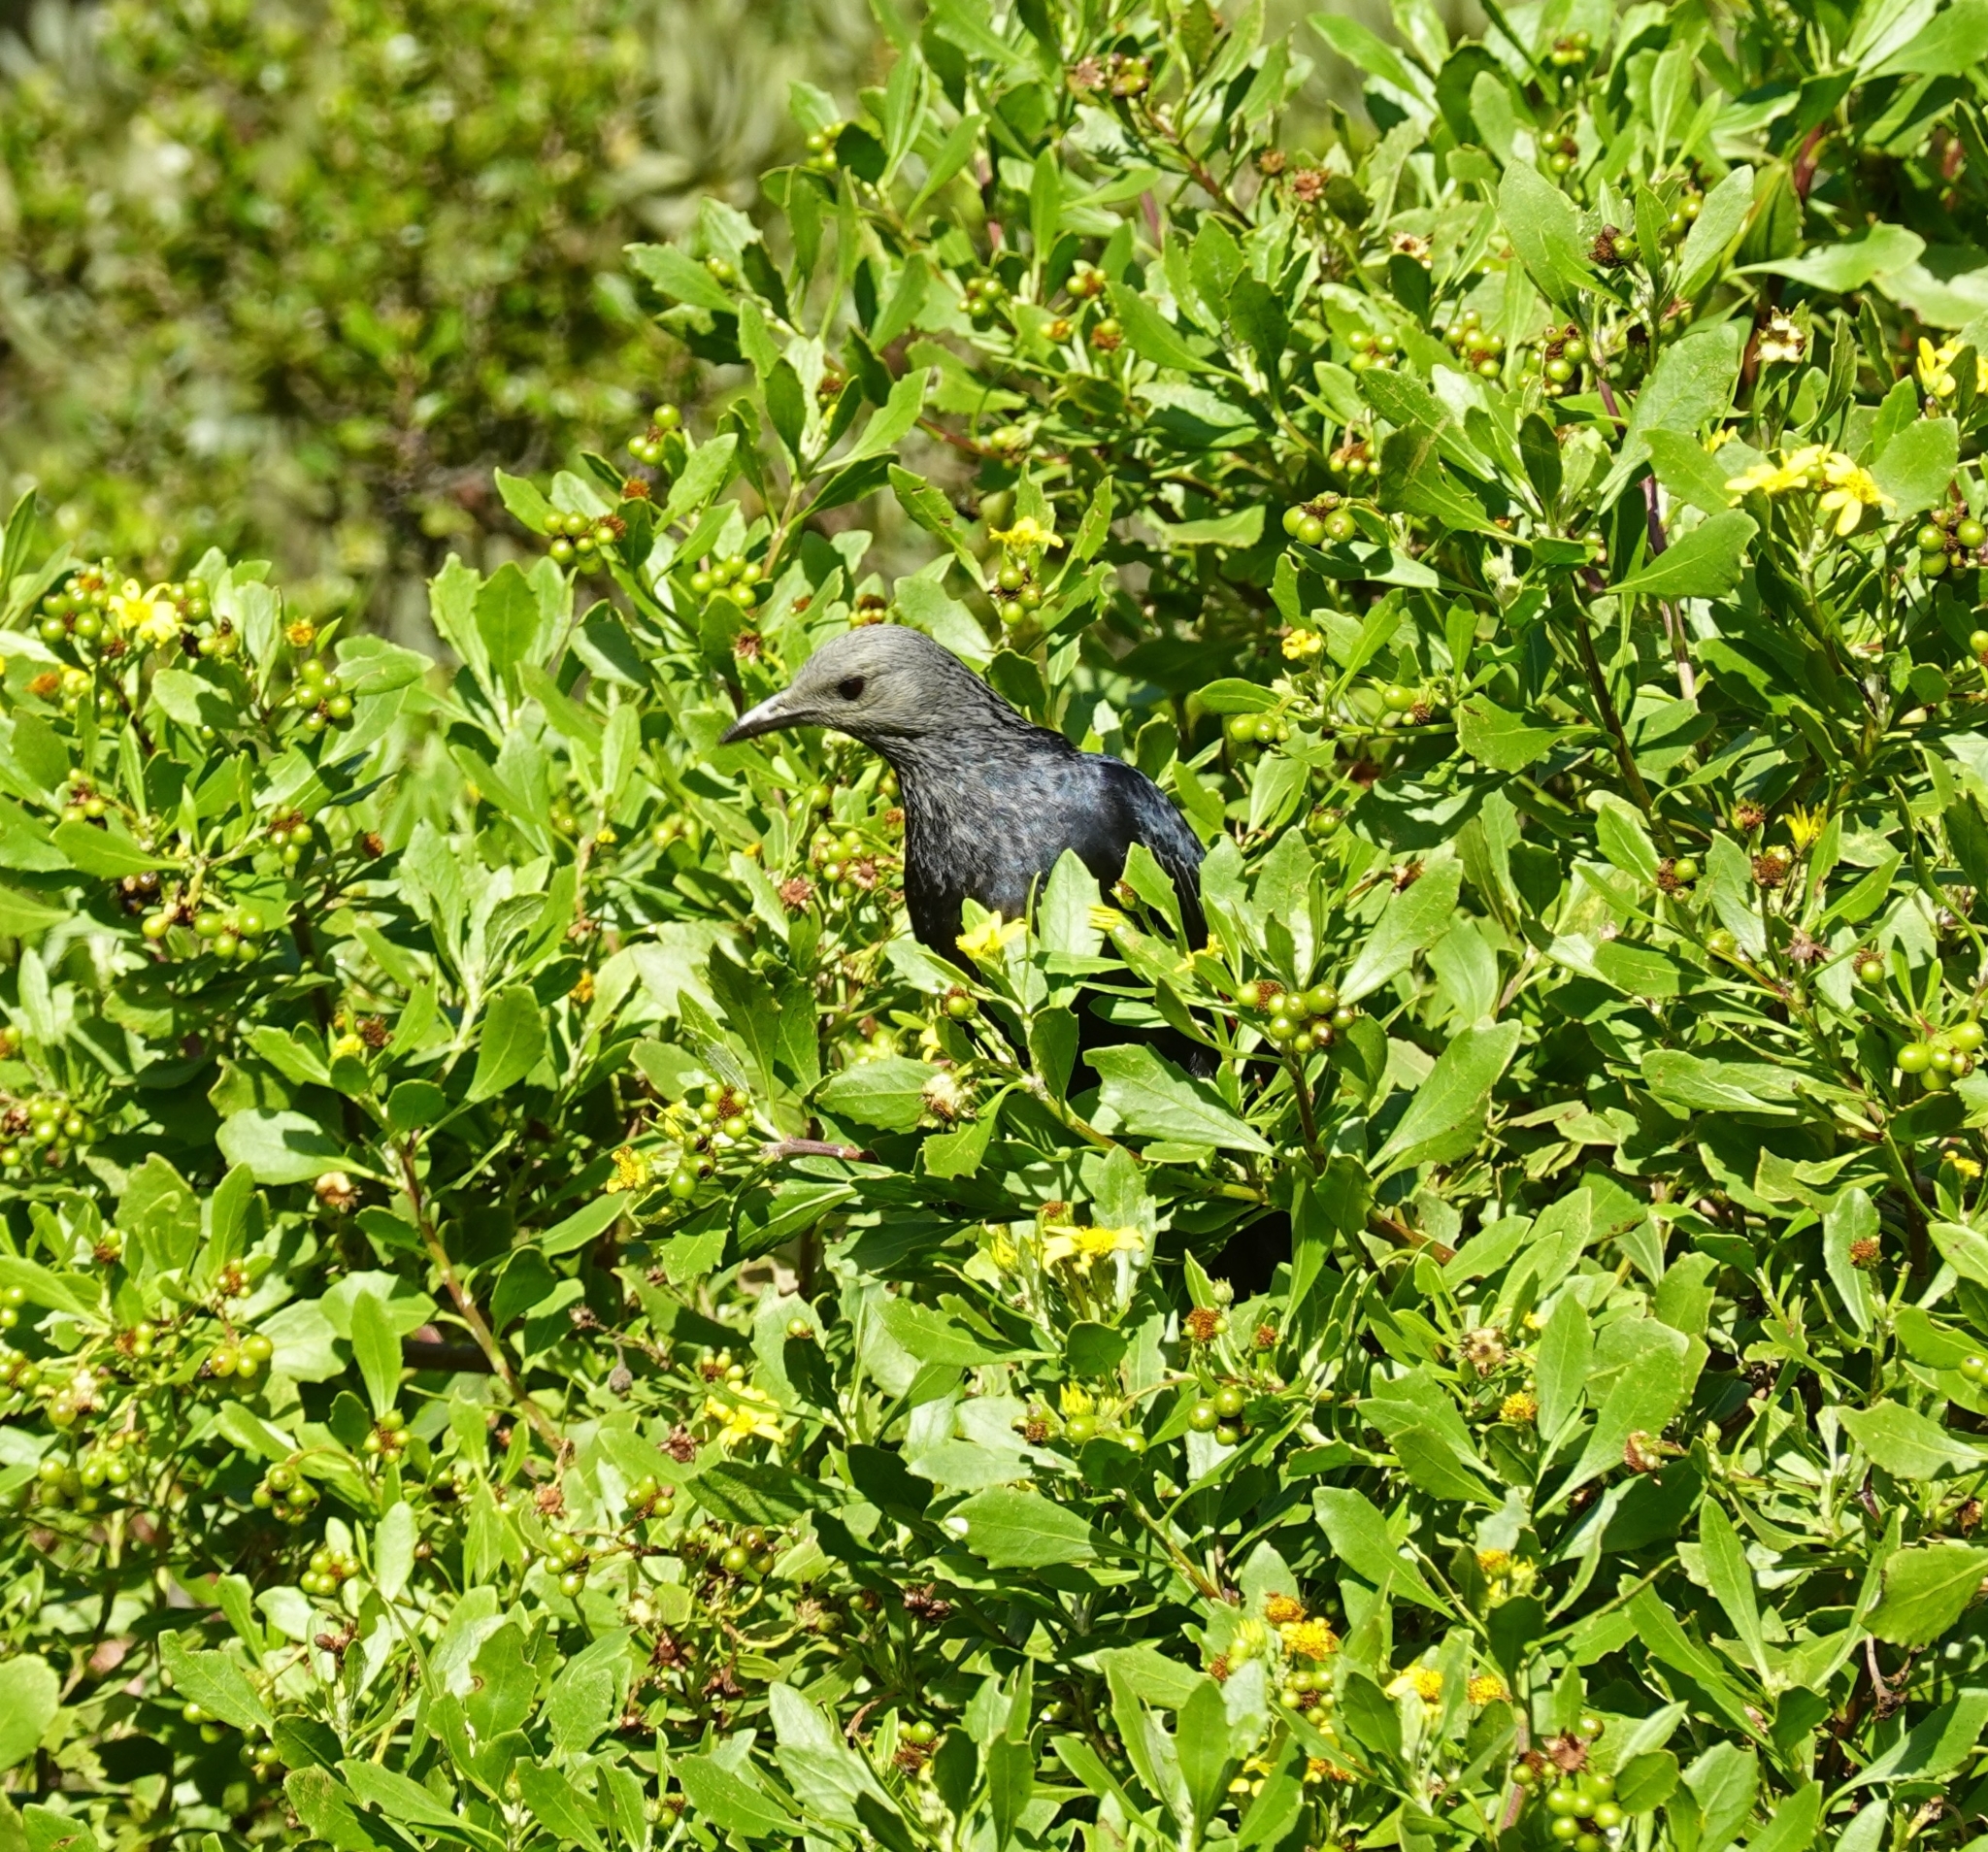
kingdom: Animalia
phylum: Chordata
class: Aves
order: Passeriformes
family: Sturnidae
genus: Onychognathus
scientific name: Onychognathus morio
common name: Red-winged starling
